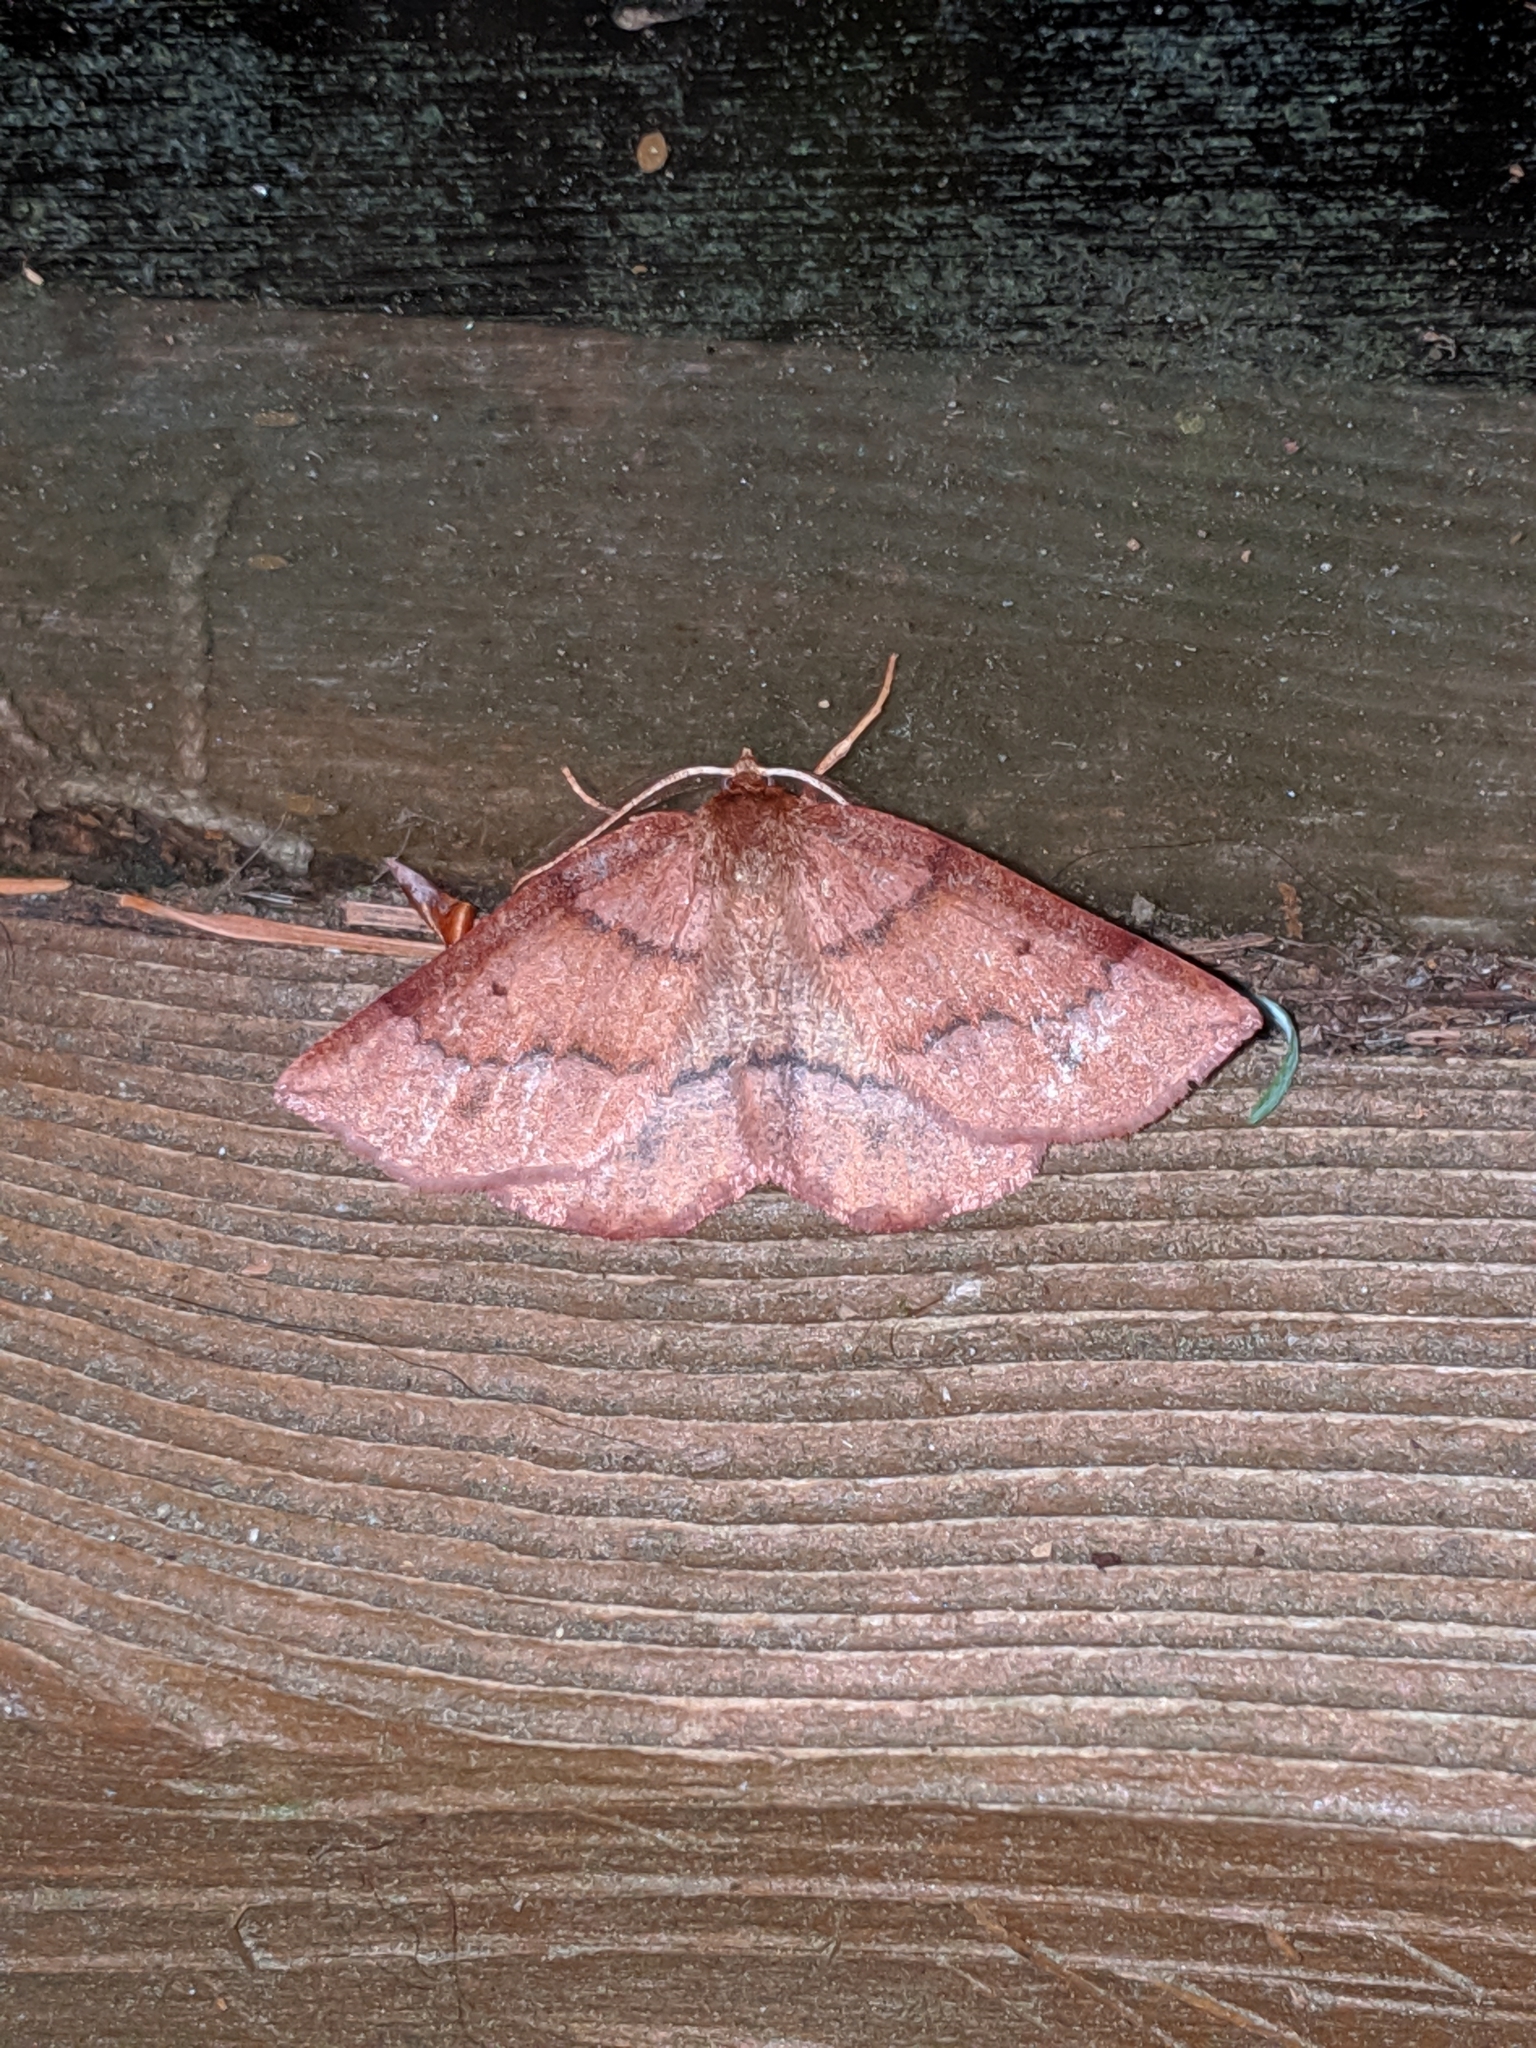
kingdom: Animalia
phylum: Arthropoda
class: Insecta
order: Lepidoptera
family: Geometridae
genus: Metarranthis
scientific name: Metarranthis duaria
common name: Ruddy metarranthis moth
